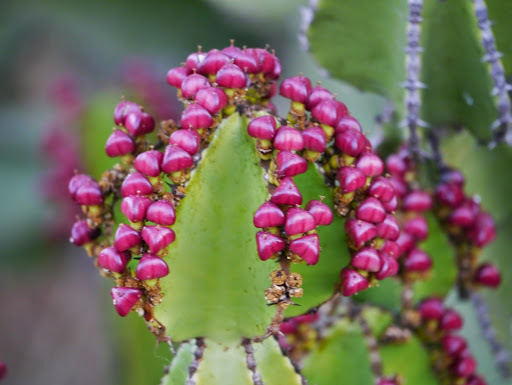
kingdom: Plantae
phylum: Tracheophyta
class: Magnoliopsida
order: Malpighiales
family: Euphorbiaceae
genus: Euphorbia
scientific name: Euphorbia cooperi
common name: Candelabra tree
